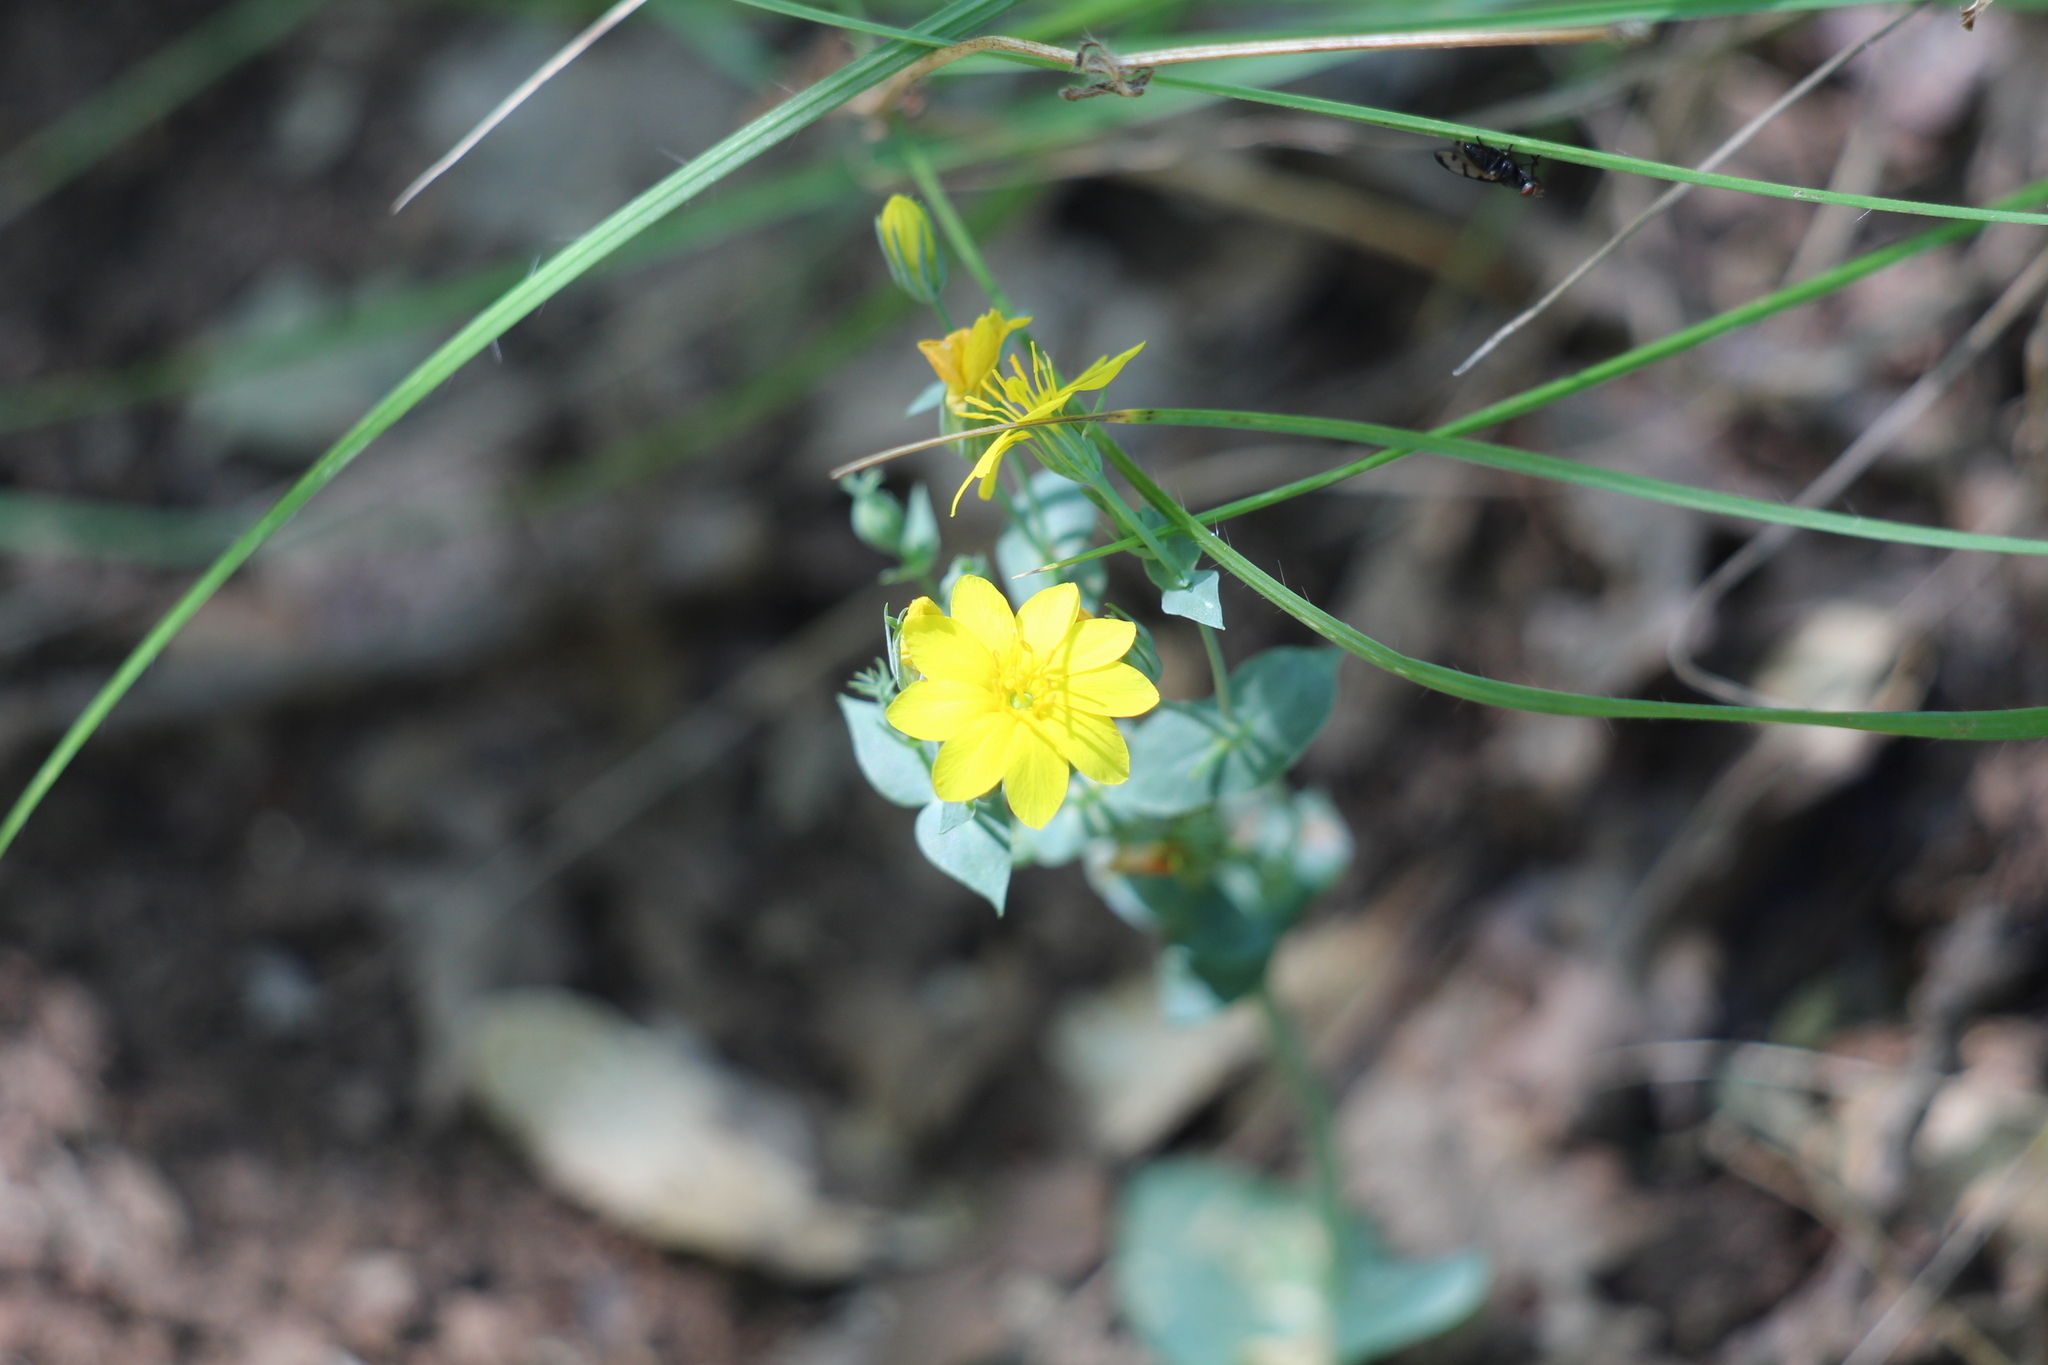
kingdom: Plantae
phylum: Tracheophyta
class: Magnoliopsida
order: Gentianales
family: Gentianaceae
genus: Blackstonia
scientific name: Blackstonia perfoliata
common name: Yellow-wort
